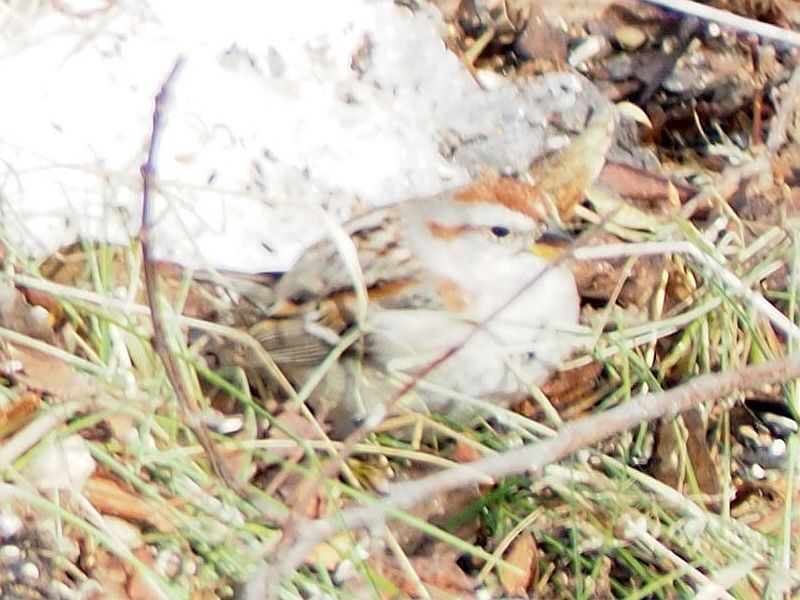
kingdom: Animalia
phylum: Chordata
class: Aves
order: Passeriformes
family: Passerellidae
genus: Spizelloides
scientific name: Spizelloides arborea
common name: American tree sparrow
